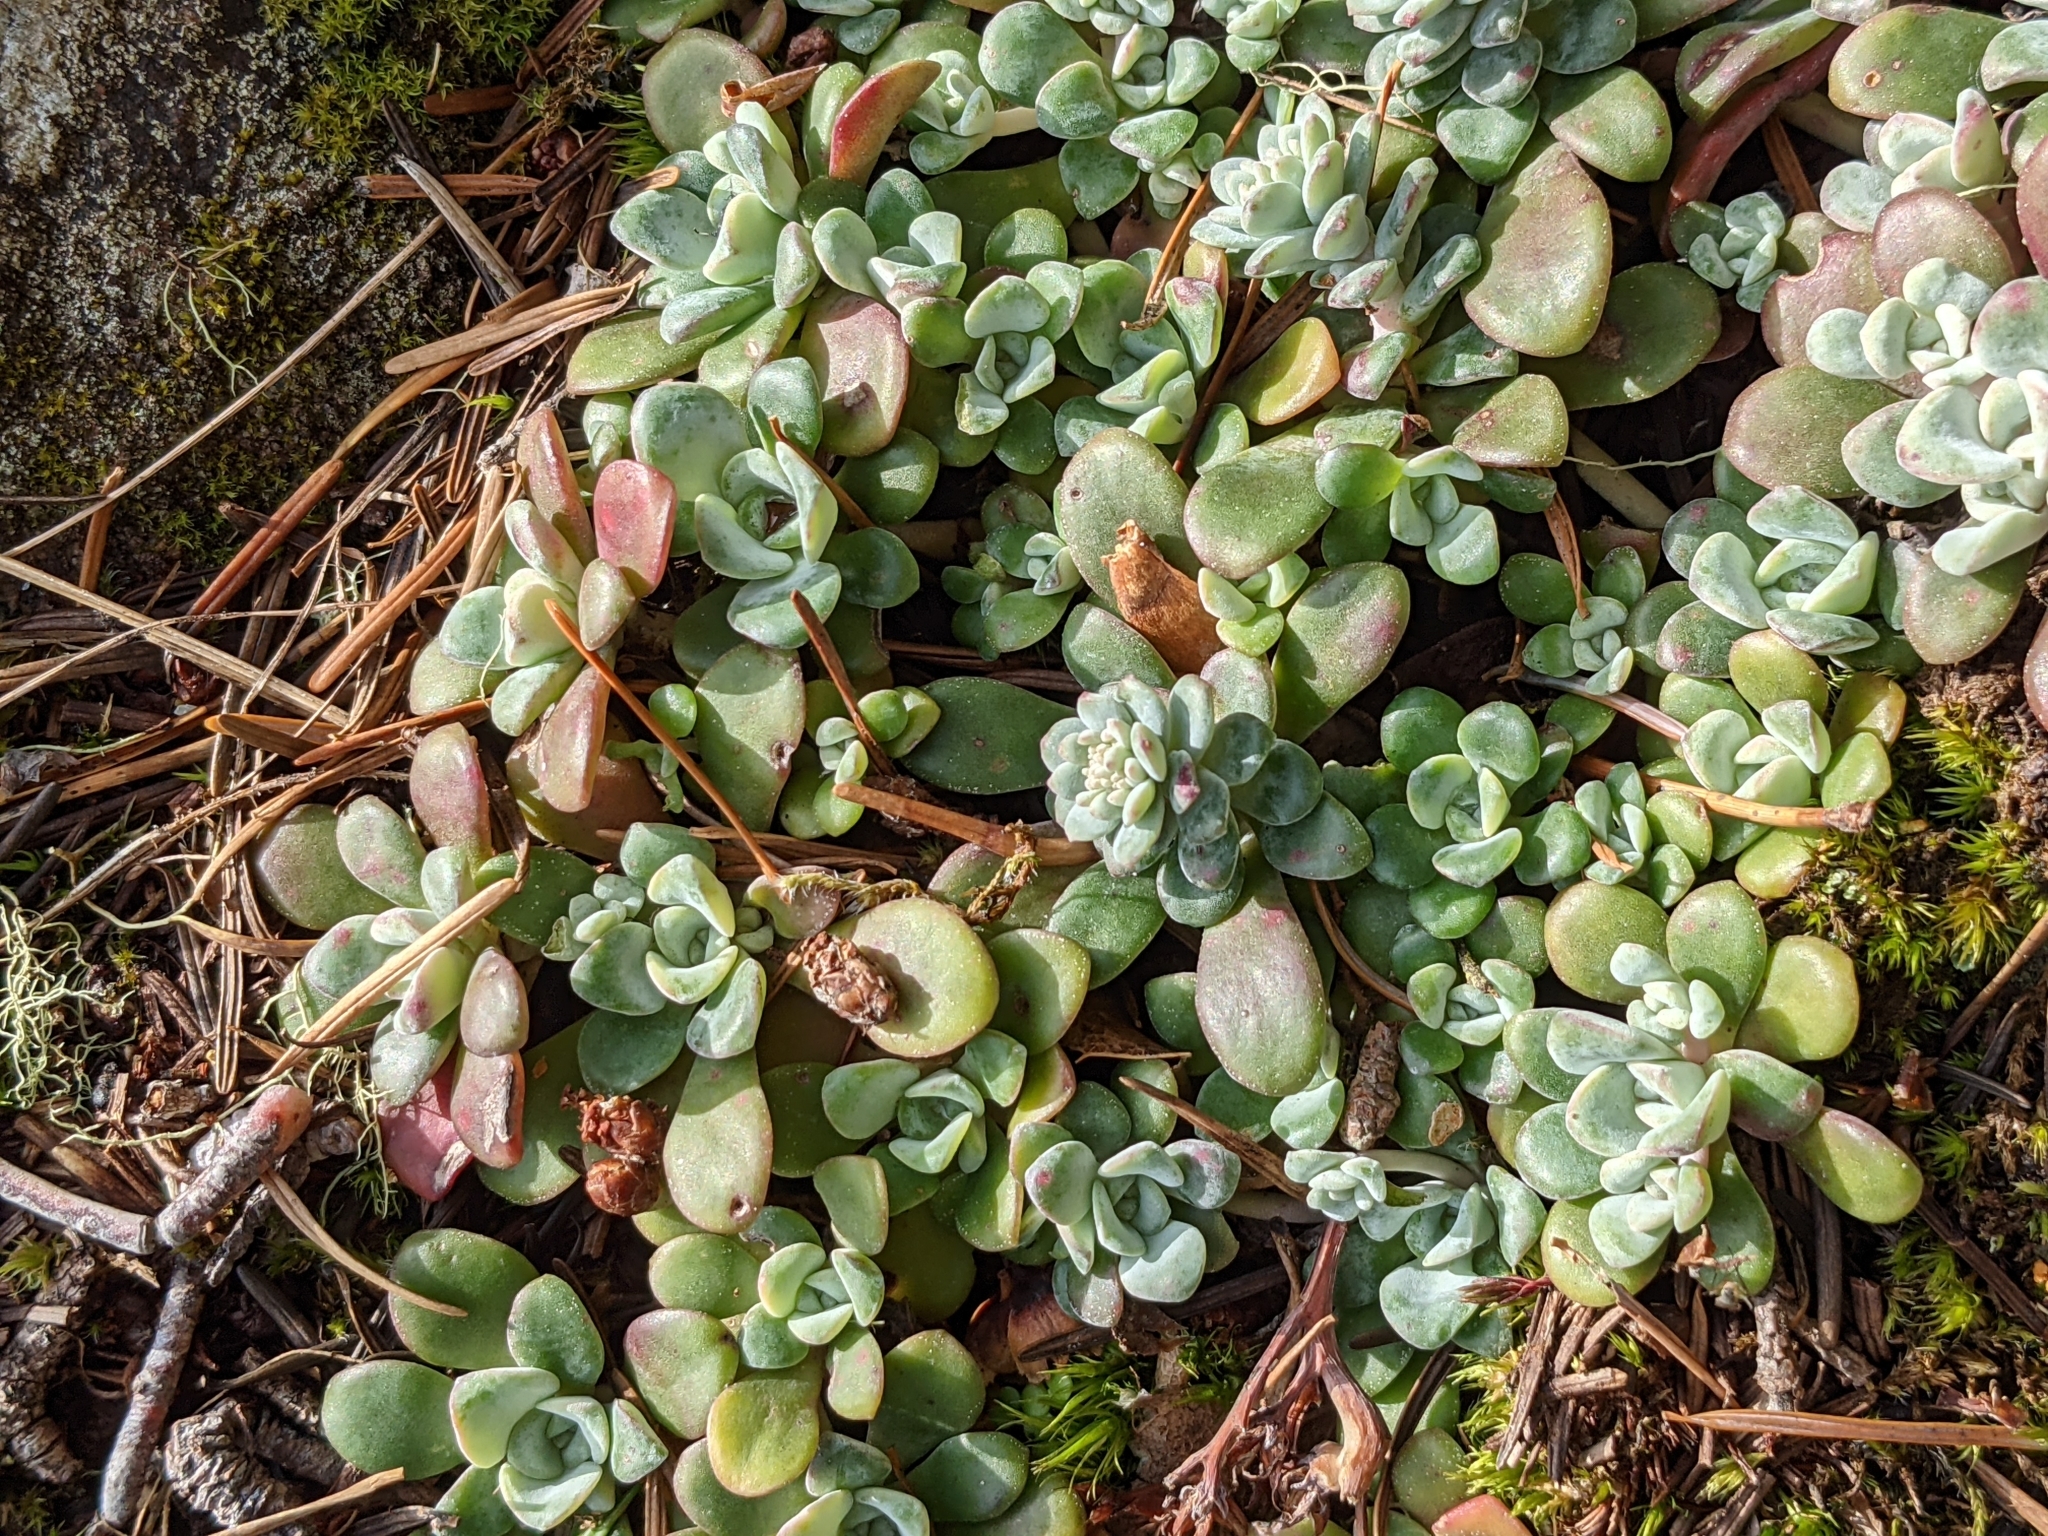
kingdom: Plantae
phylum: Tracheophyta
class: Magnoliopsida
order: Saxifragales
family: Crassulaceae
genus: Sedum
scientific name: Sedum spathulifolium
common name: Colorado stonecrop
